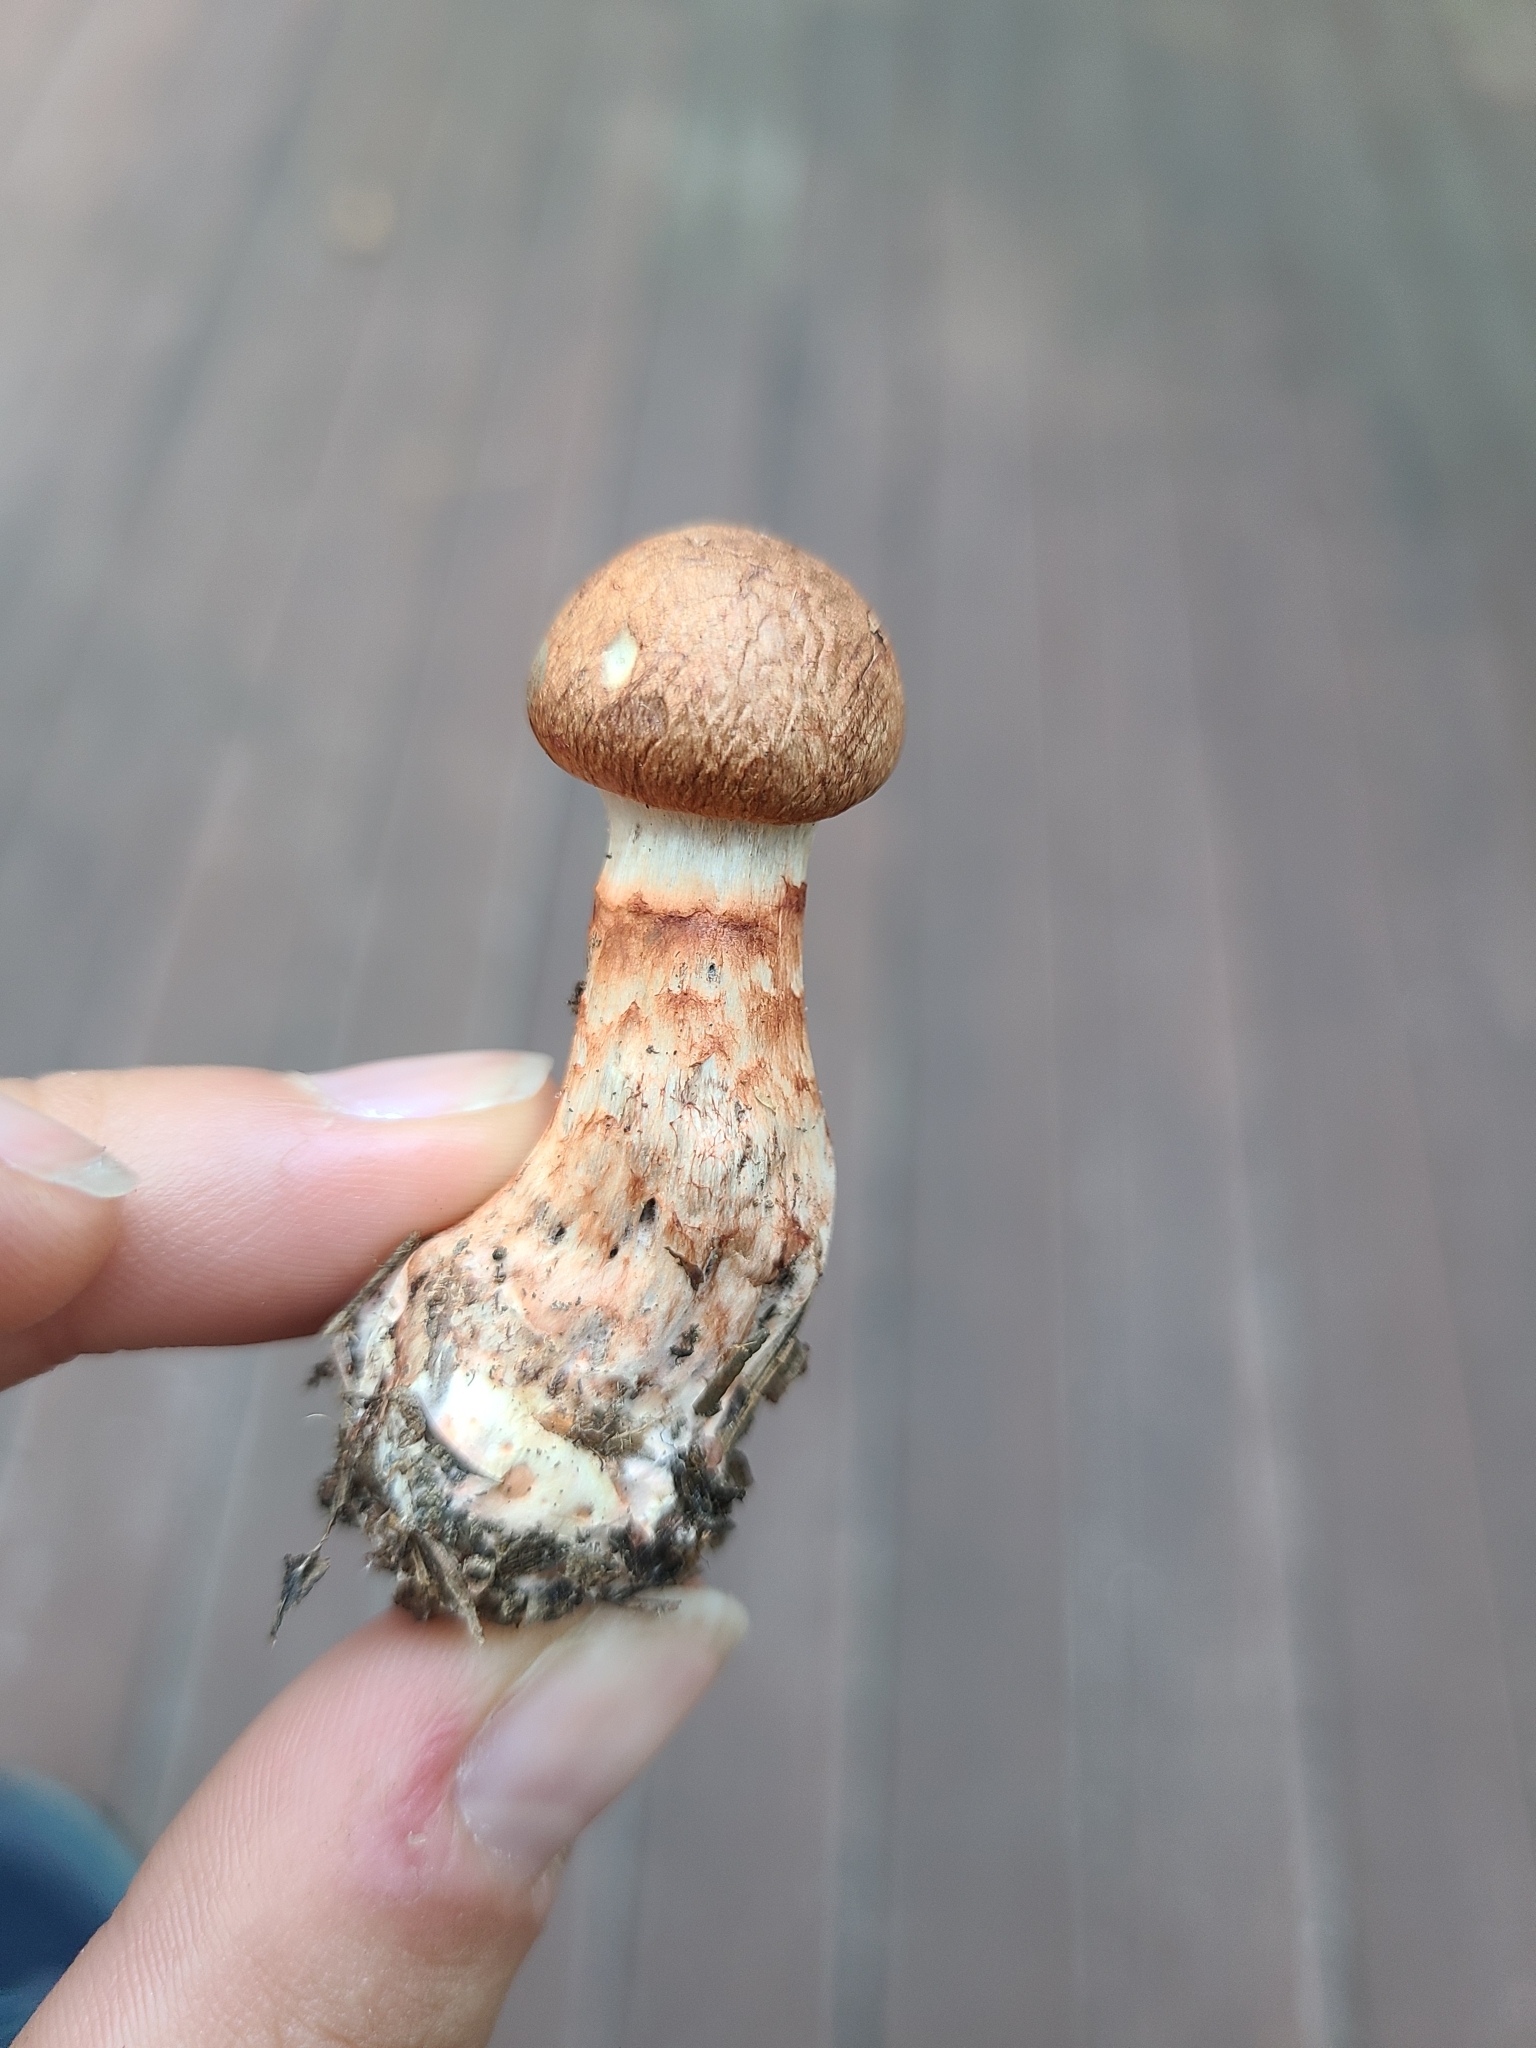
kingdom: Fungi
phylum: Basidiomycota
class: Agaricomycetes
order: Agaricales
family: Cortinariaceae
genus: Cortinarius
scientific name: Cortinarius armillatus
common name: Red banded webcap
